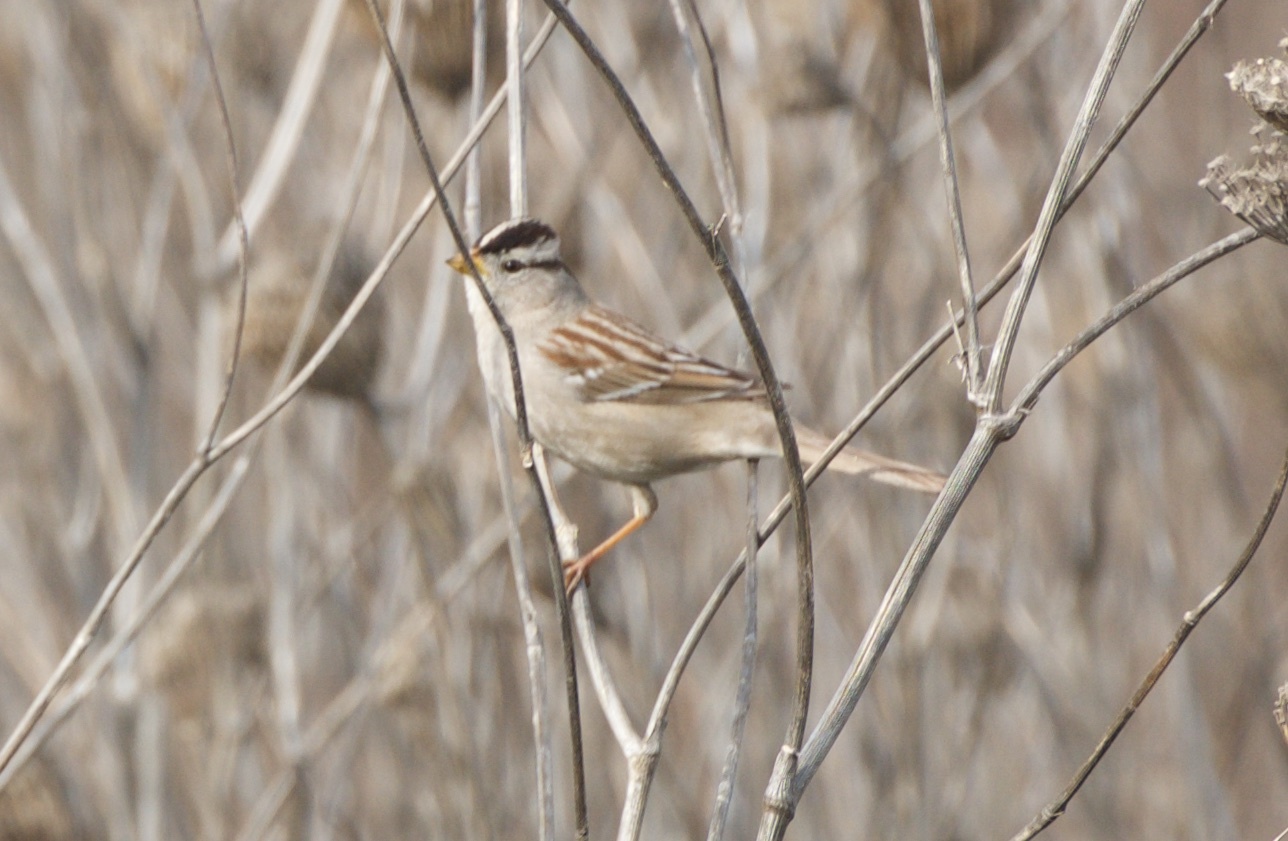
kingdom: Animalia
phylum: Chordata
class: Aves
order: Passeriformes
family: Passerellidae
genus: Zonotrichia
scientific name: Zonotrichia leucophrys
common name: White-crowned sparrow
